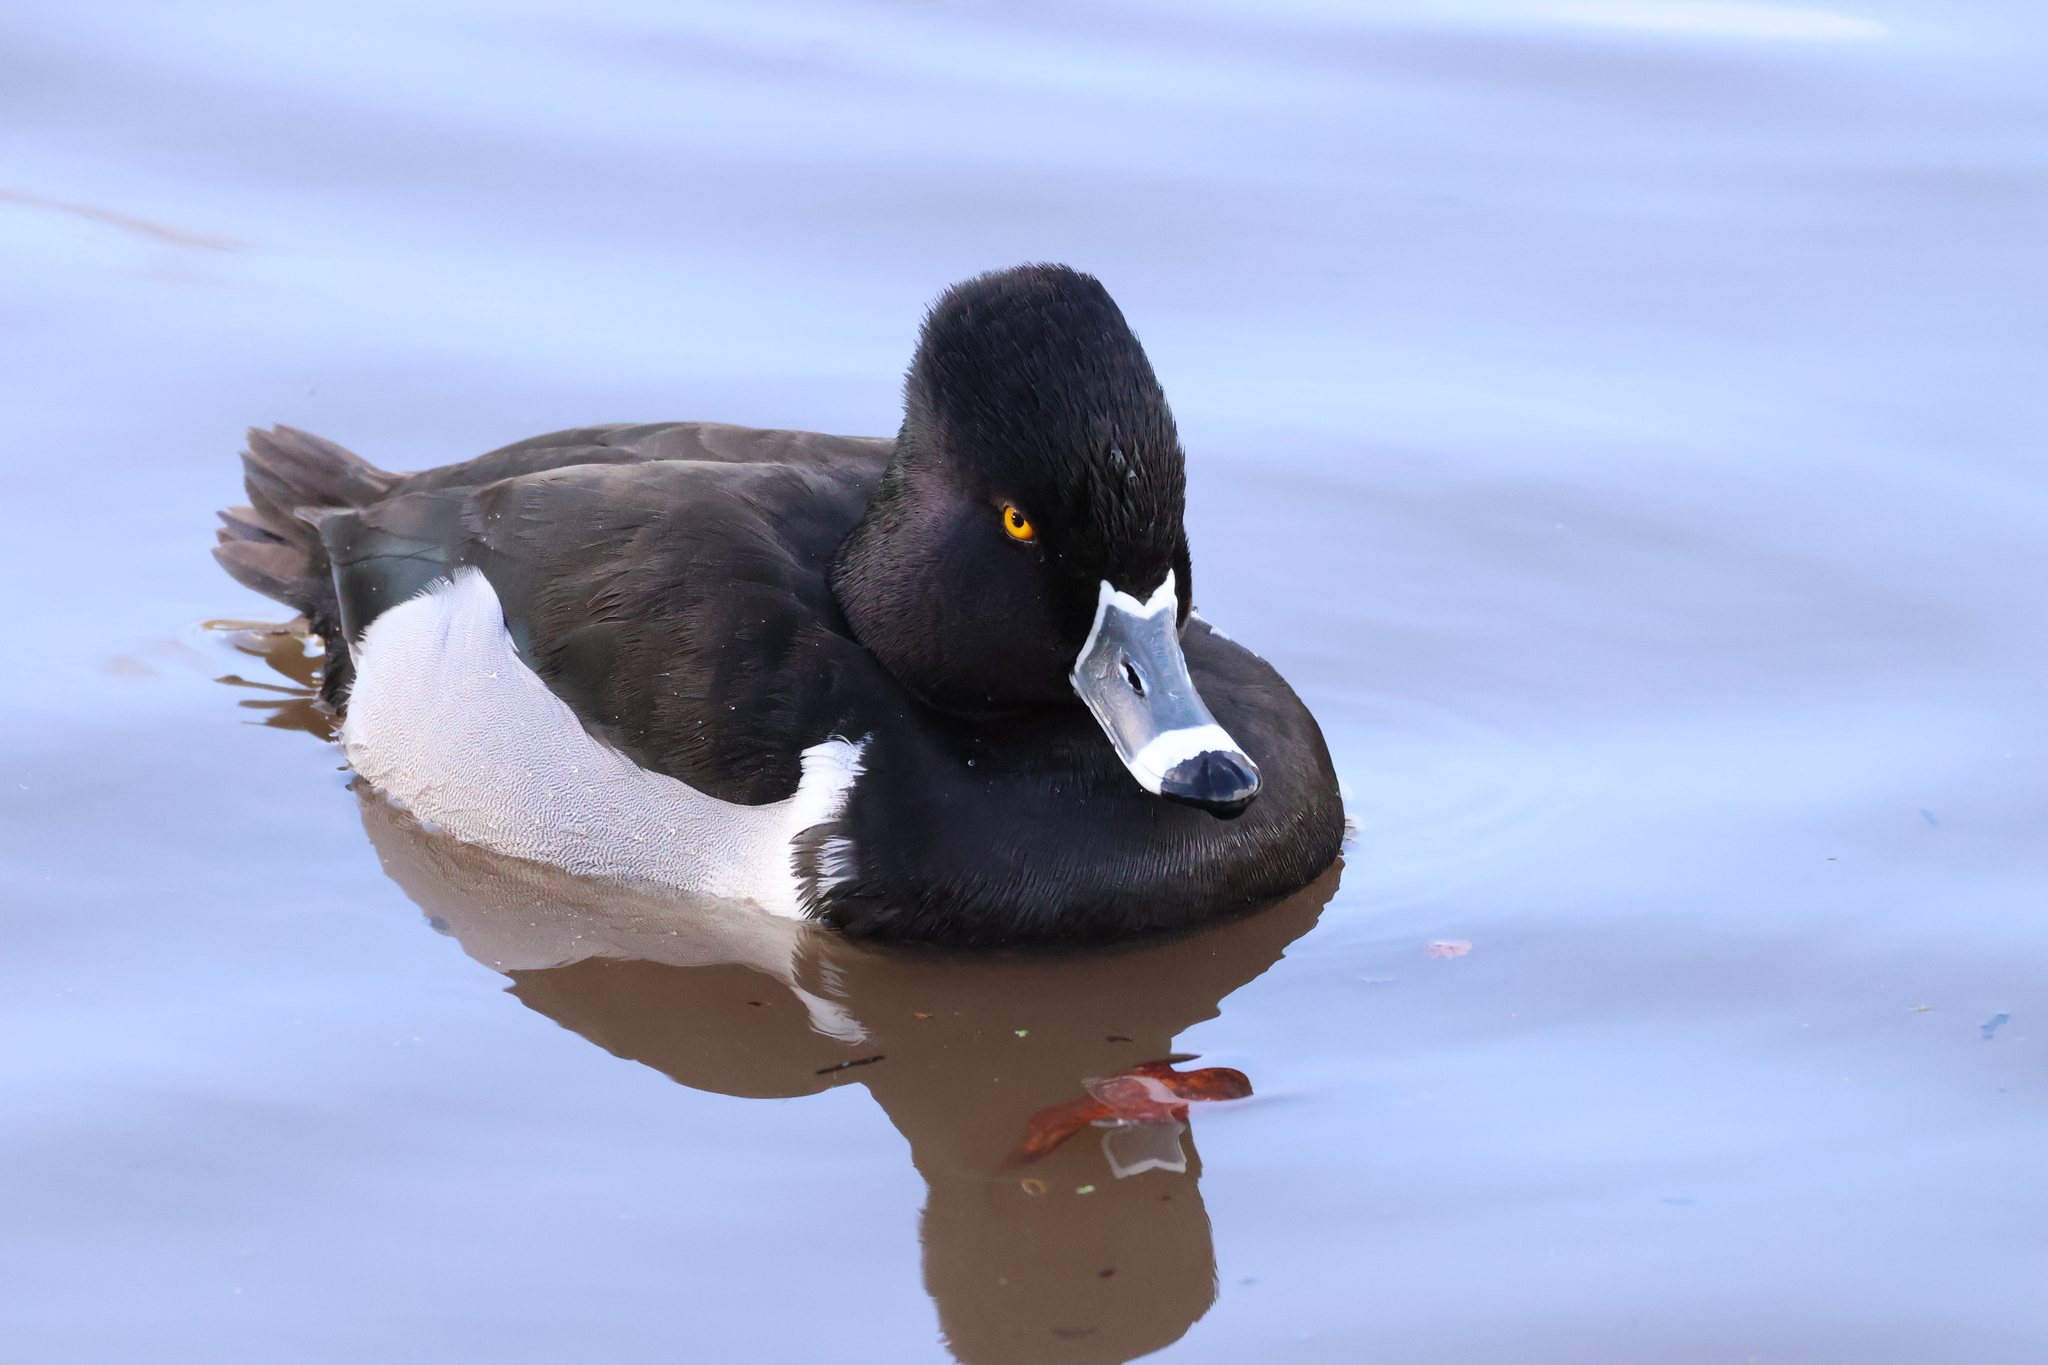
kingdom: Animalia
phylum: Chordata
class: Aves
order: Anseriformes
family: Anatidae
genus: Aythya
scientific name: Aythya collaris
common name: Ring-necked duck
